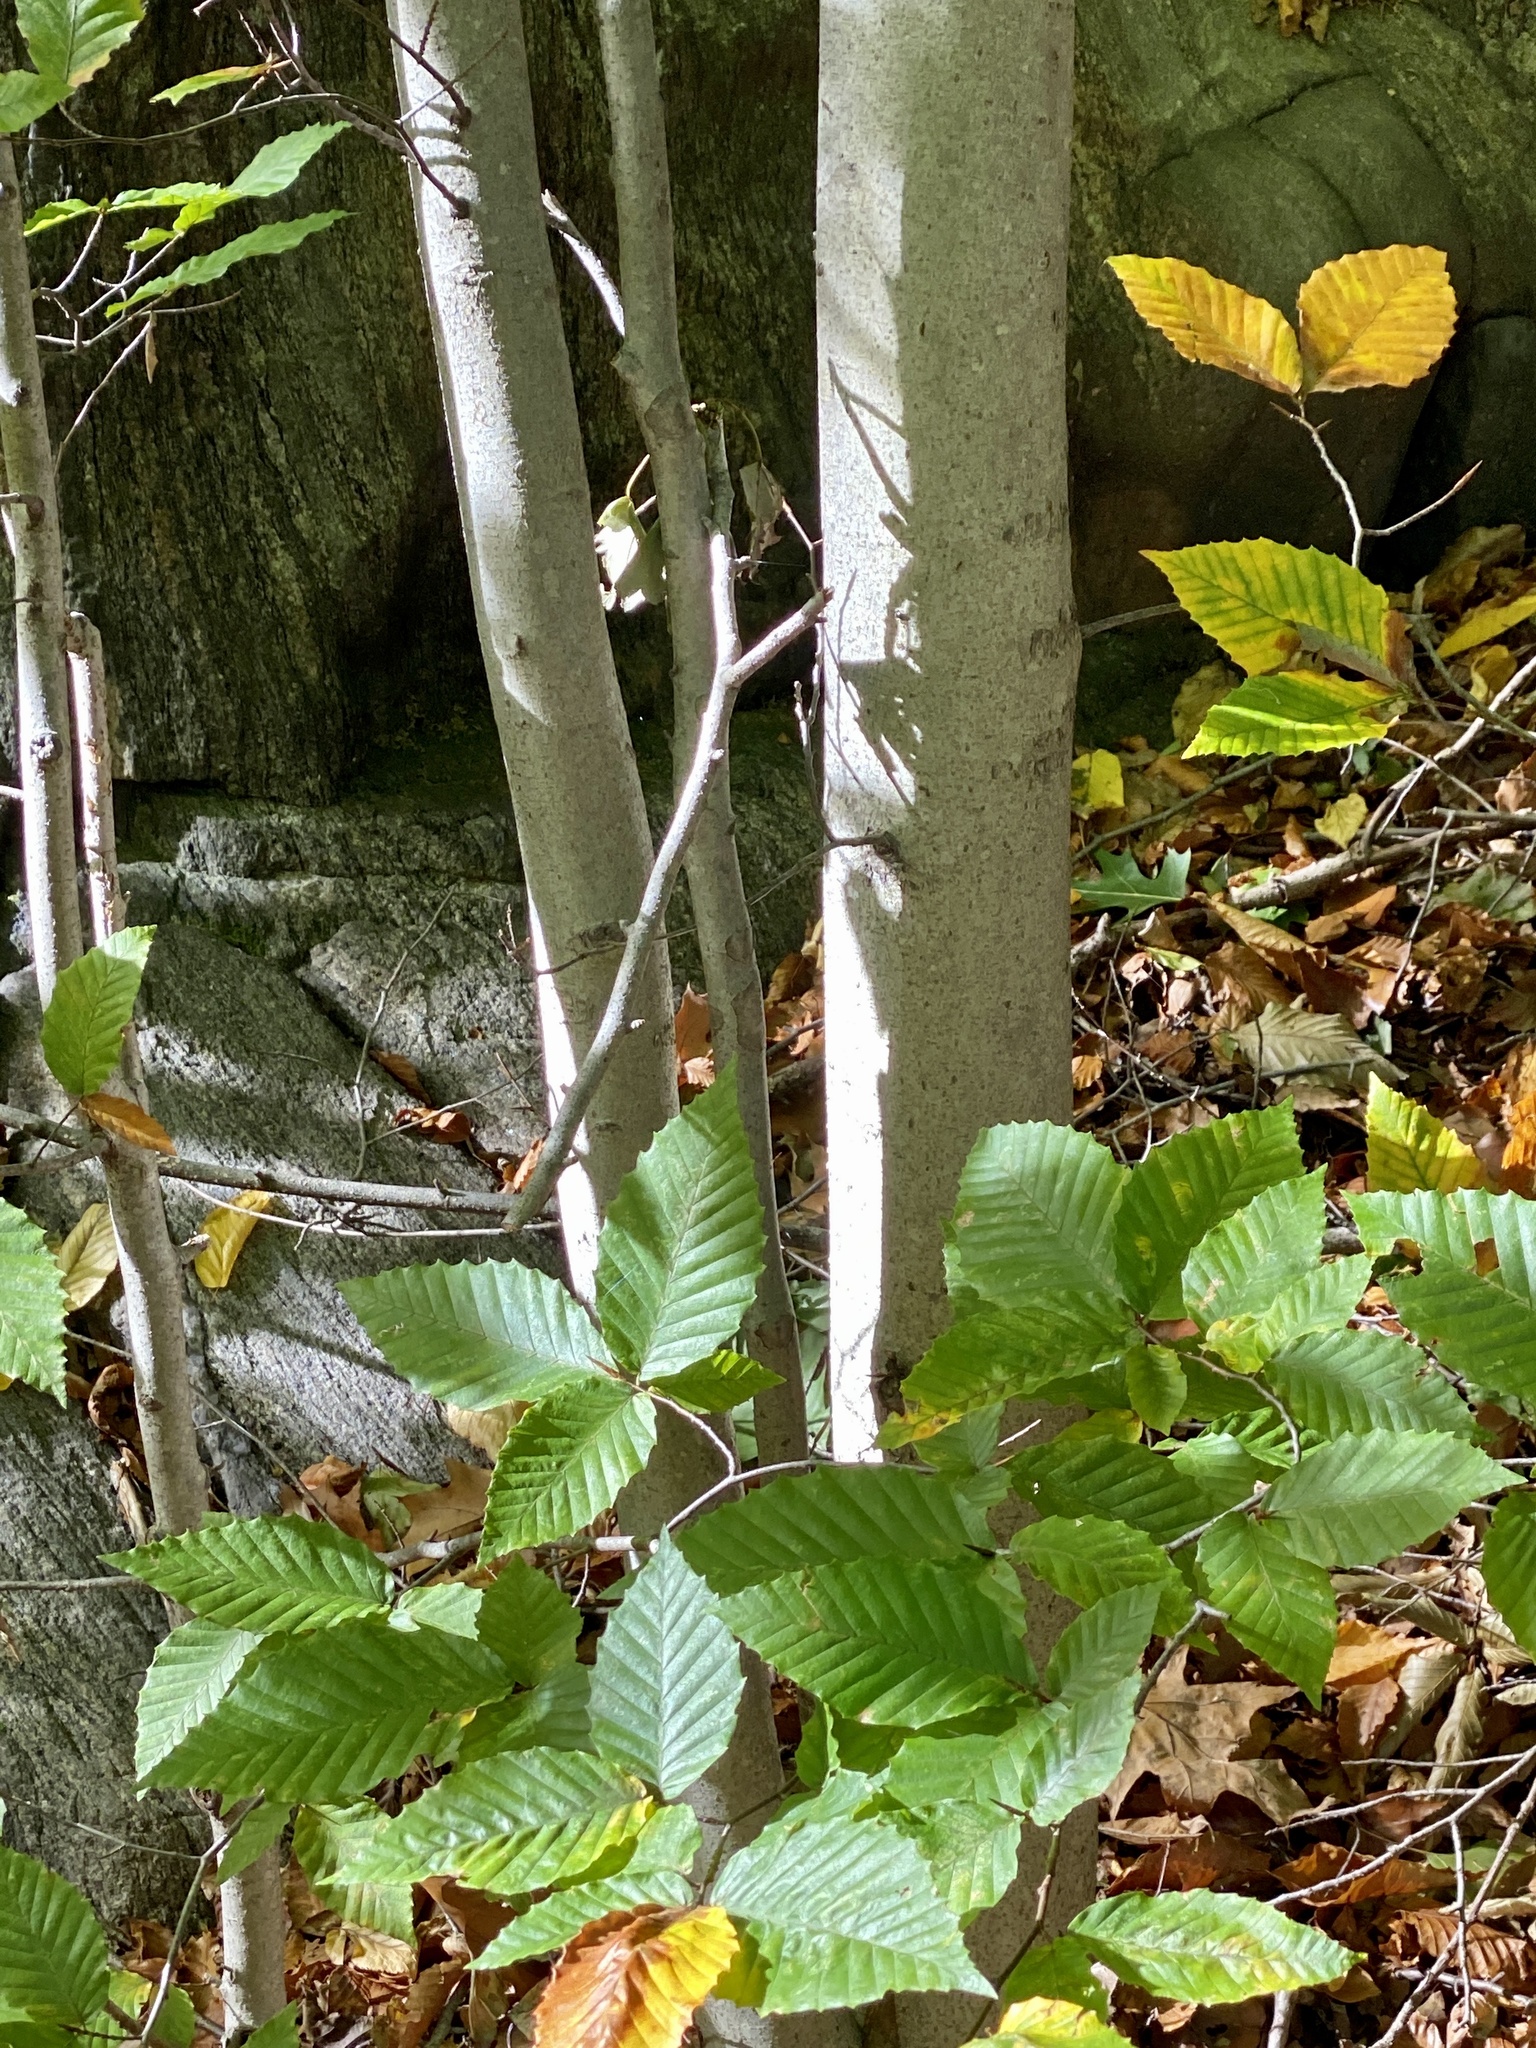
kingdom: Plantae
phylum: Tracheophyta
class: Magnoliopsida
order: Fagales
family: Fagaceae
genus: Fagus
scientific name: Fagus grandifolia
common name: American beech
